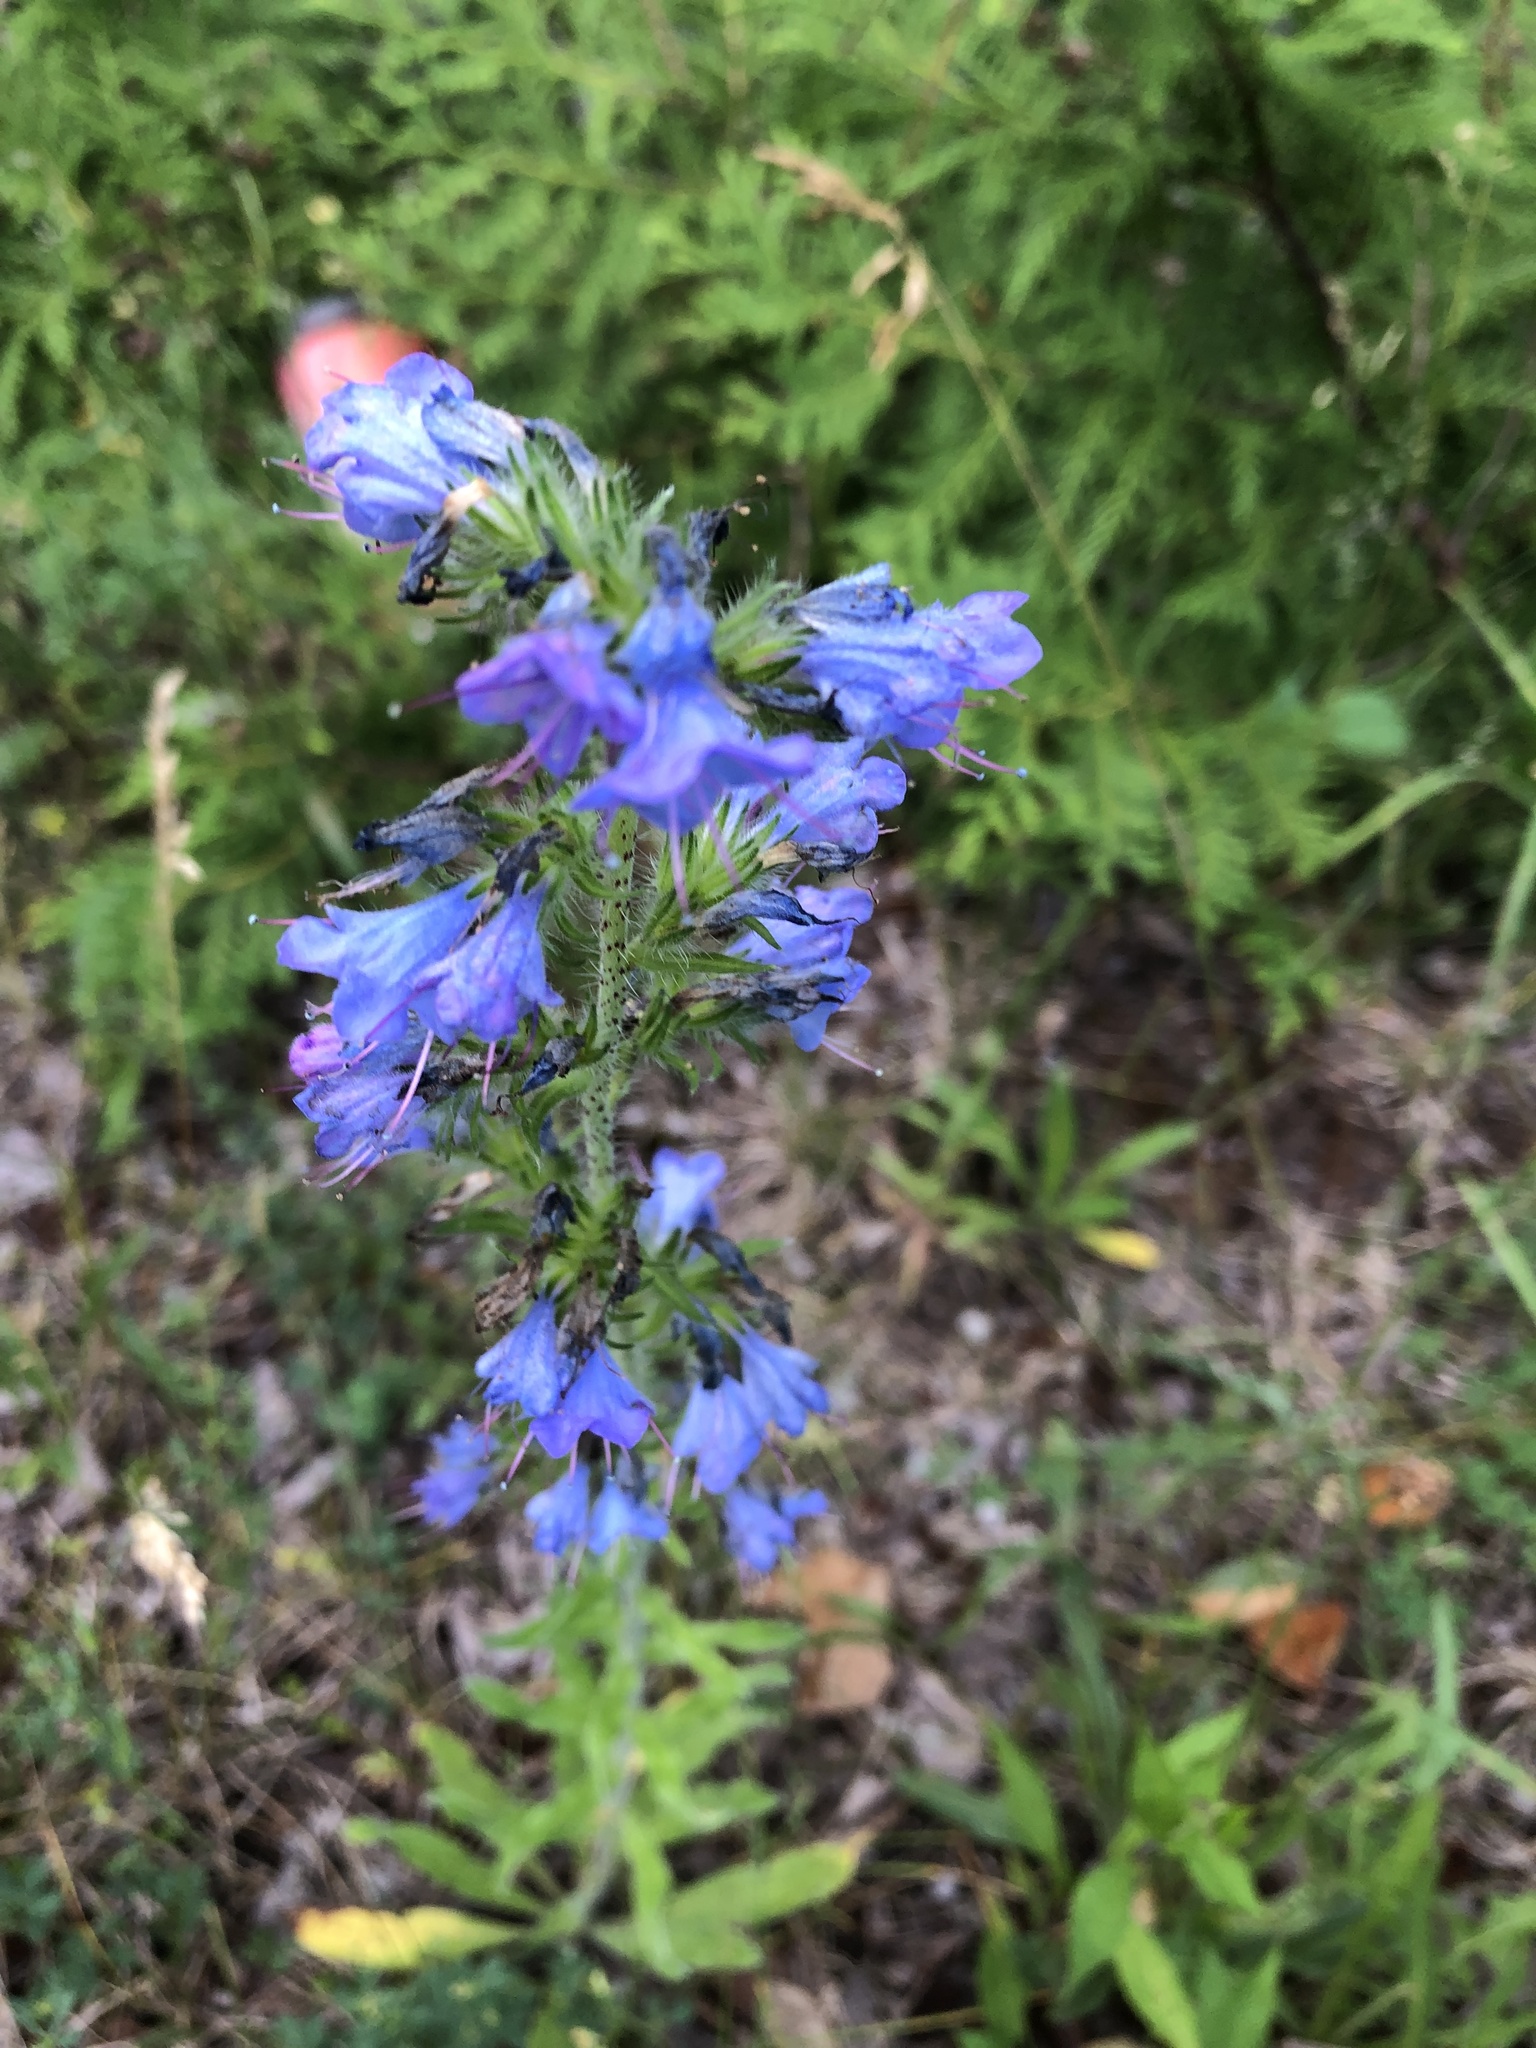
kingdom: Plantae
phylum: Tracheophyta
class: Magnoliopsida
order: Boraginales
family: Boraginaceae
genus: Echium
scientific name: Echium vulgare
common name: Common viper's bugloss
